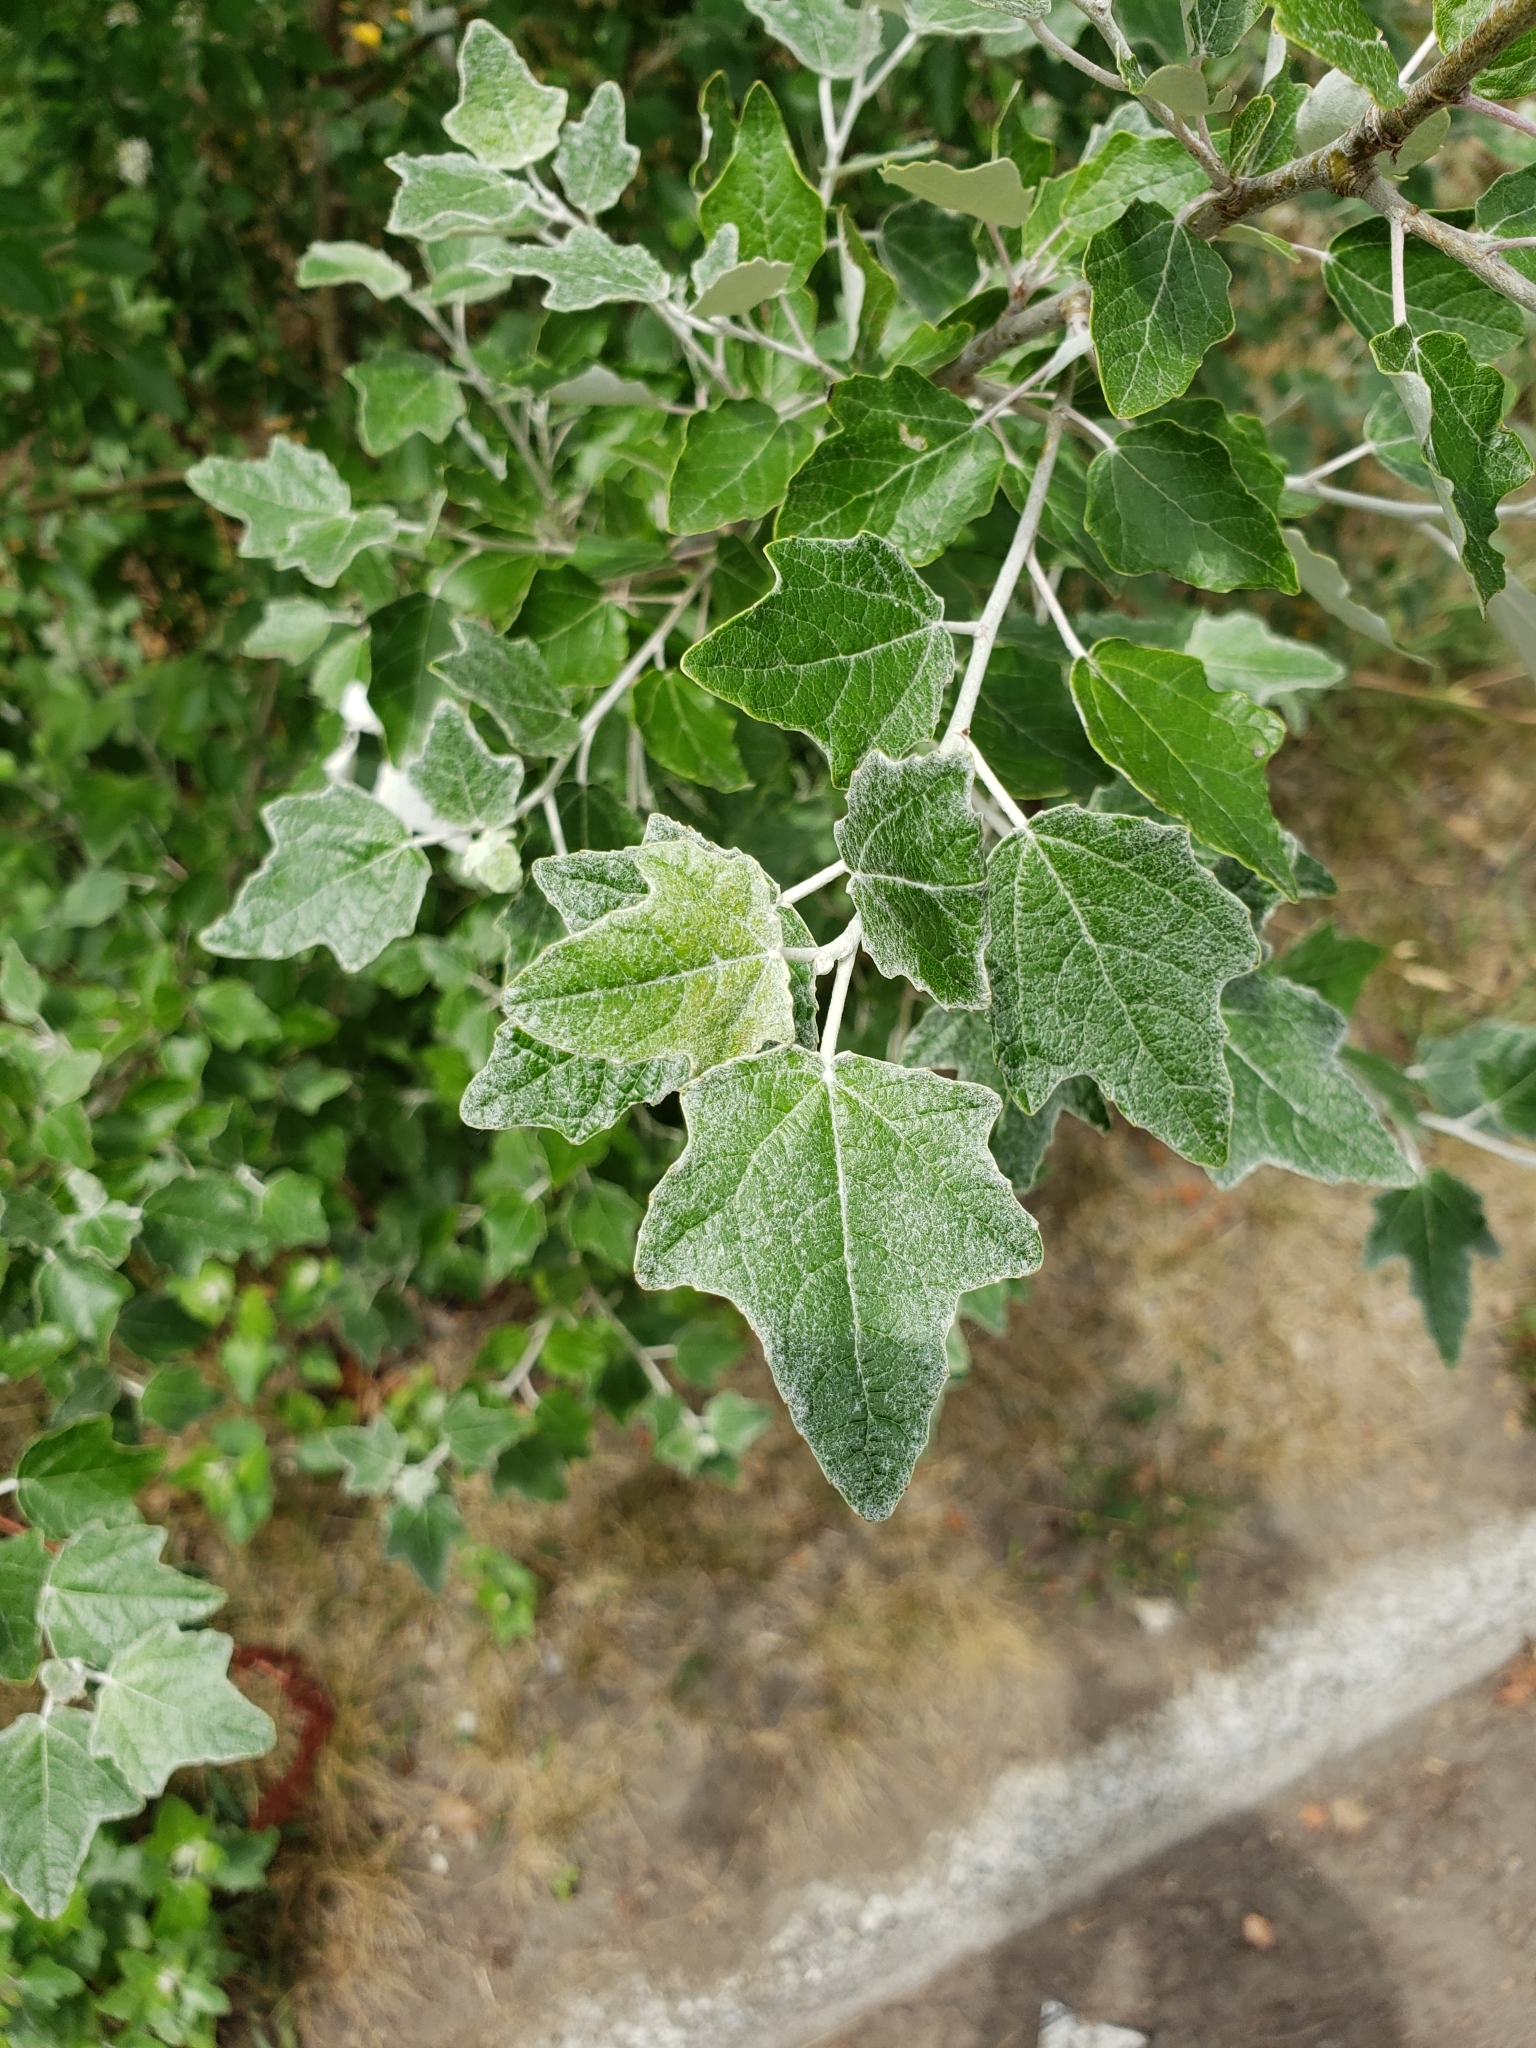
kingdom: Plantae
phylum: Tracheophyta
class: Magnoliopsida
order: Malpighiales
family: Salicaceae
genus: Populus
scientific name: Populus alba
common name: White poplar
